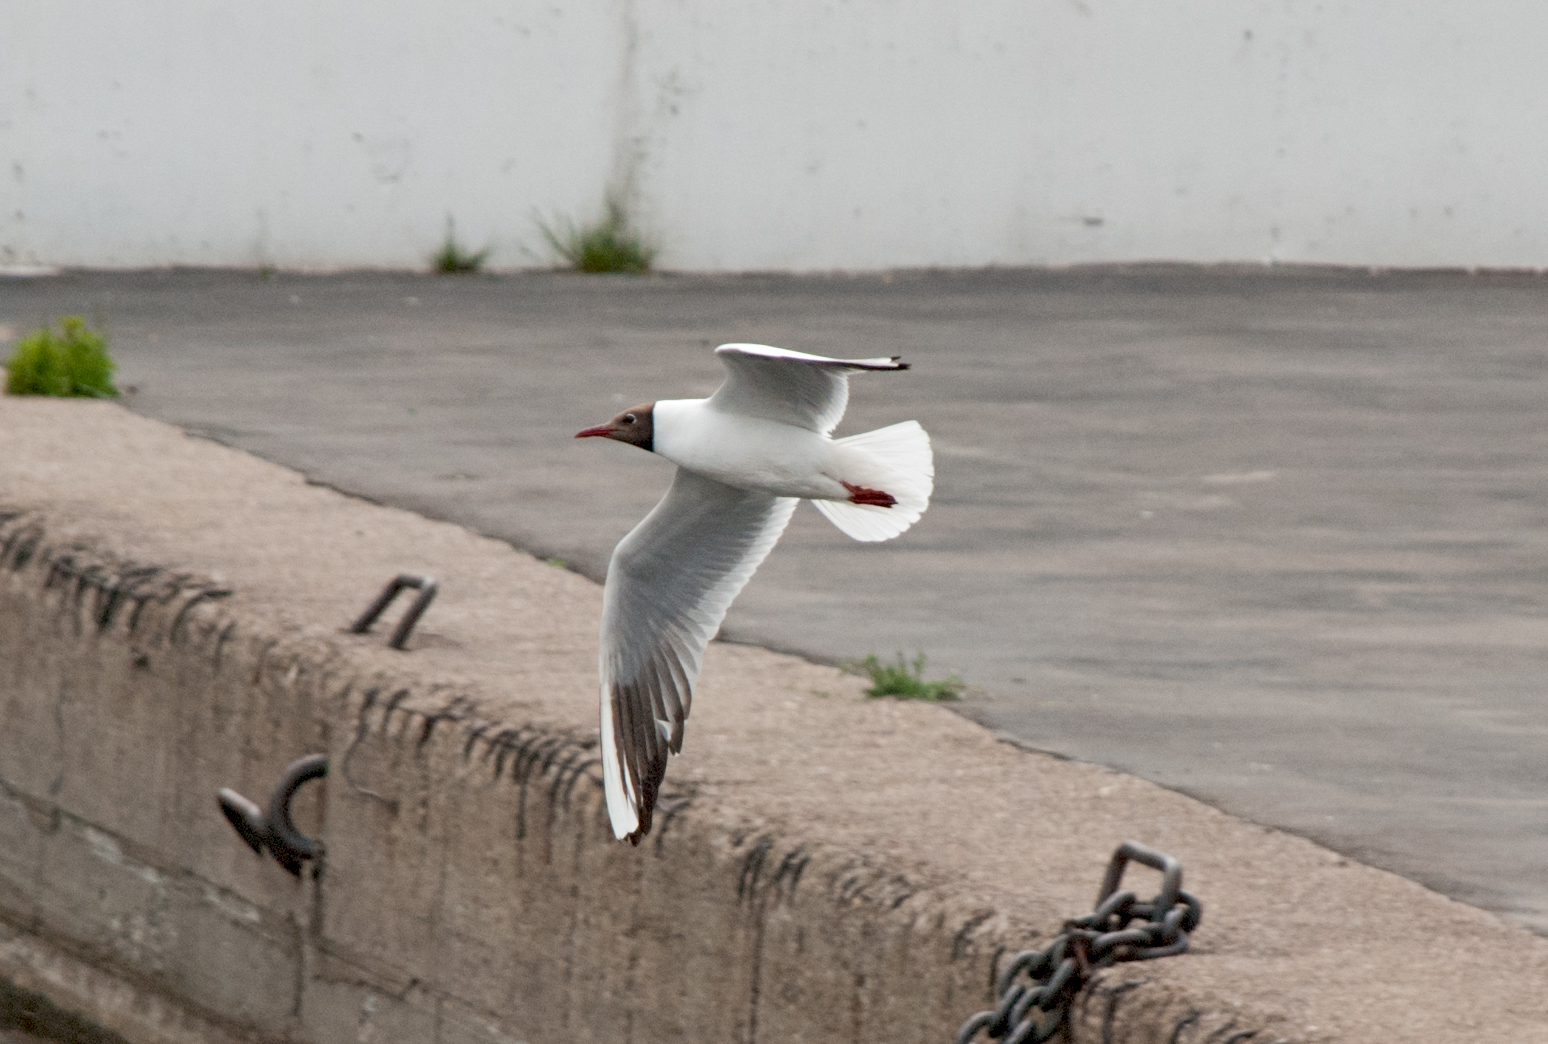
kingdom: Animalia
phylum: Chordata
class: Aves
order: Charadriiformes
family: Laridae
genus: Chroicocephalus
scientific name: Chroicocephalus ridibundus
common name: Black-headed gull
